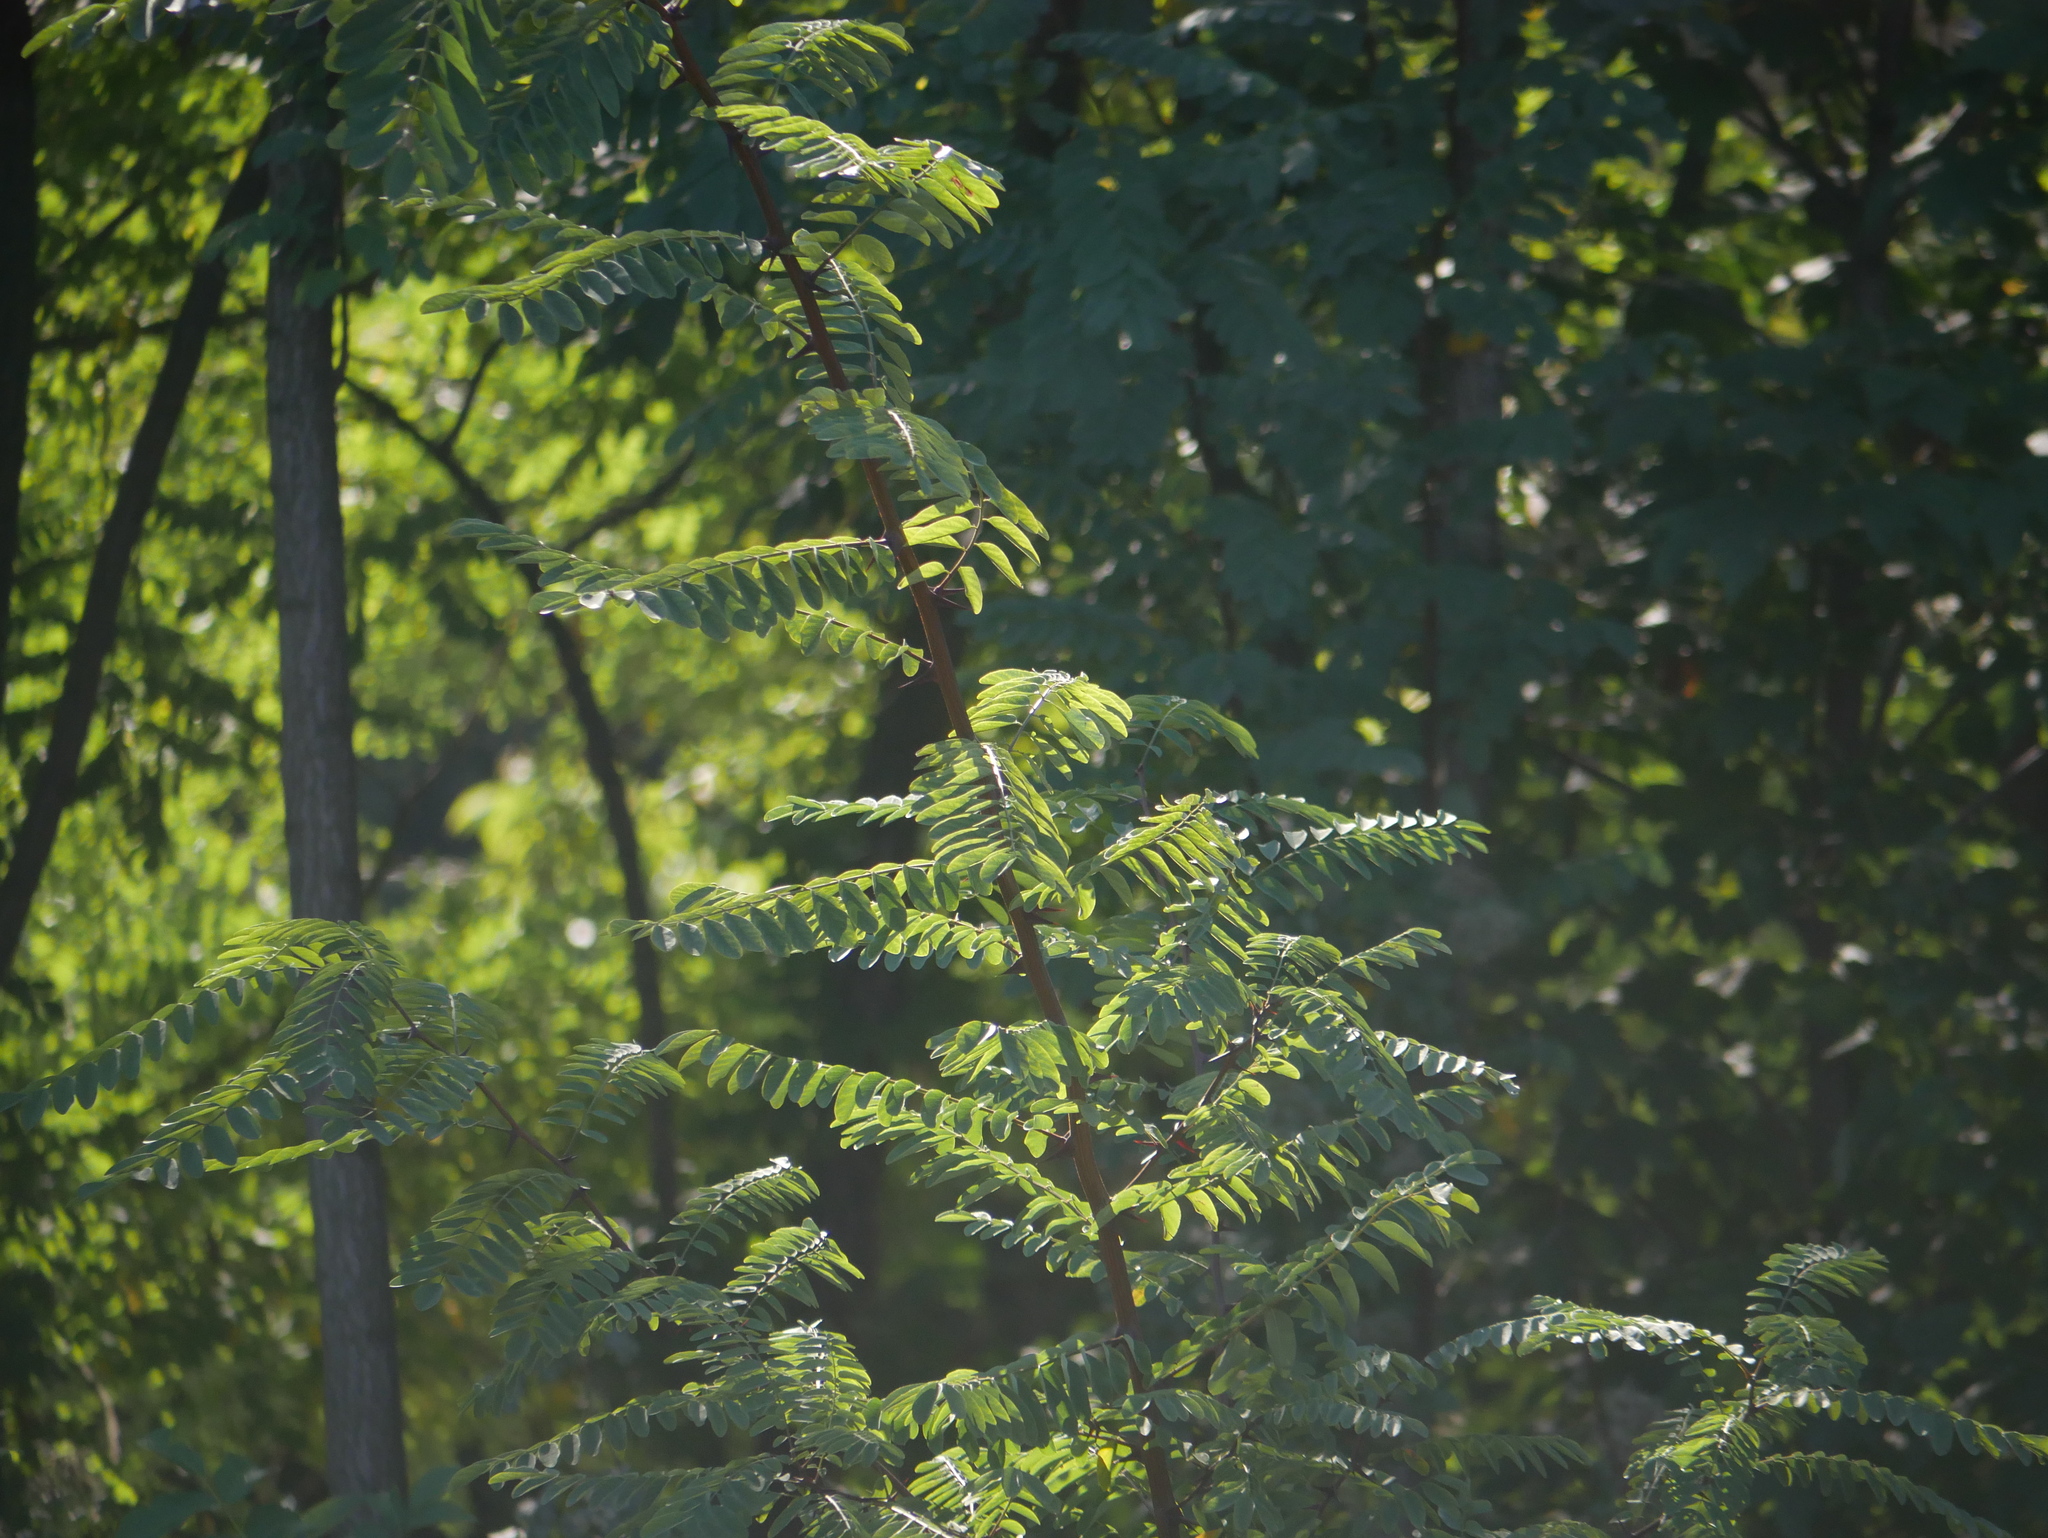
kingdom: Plantae
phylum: Tracheophyta
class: Magnoliopsida
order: Fabales
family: Fabaceae
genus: Robinia
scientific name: Robinia pseudoacacia
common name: Black locust
